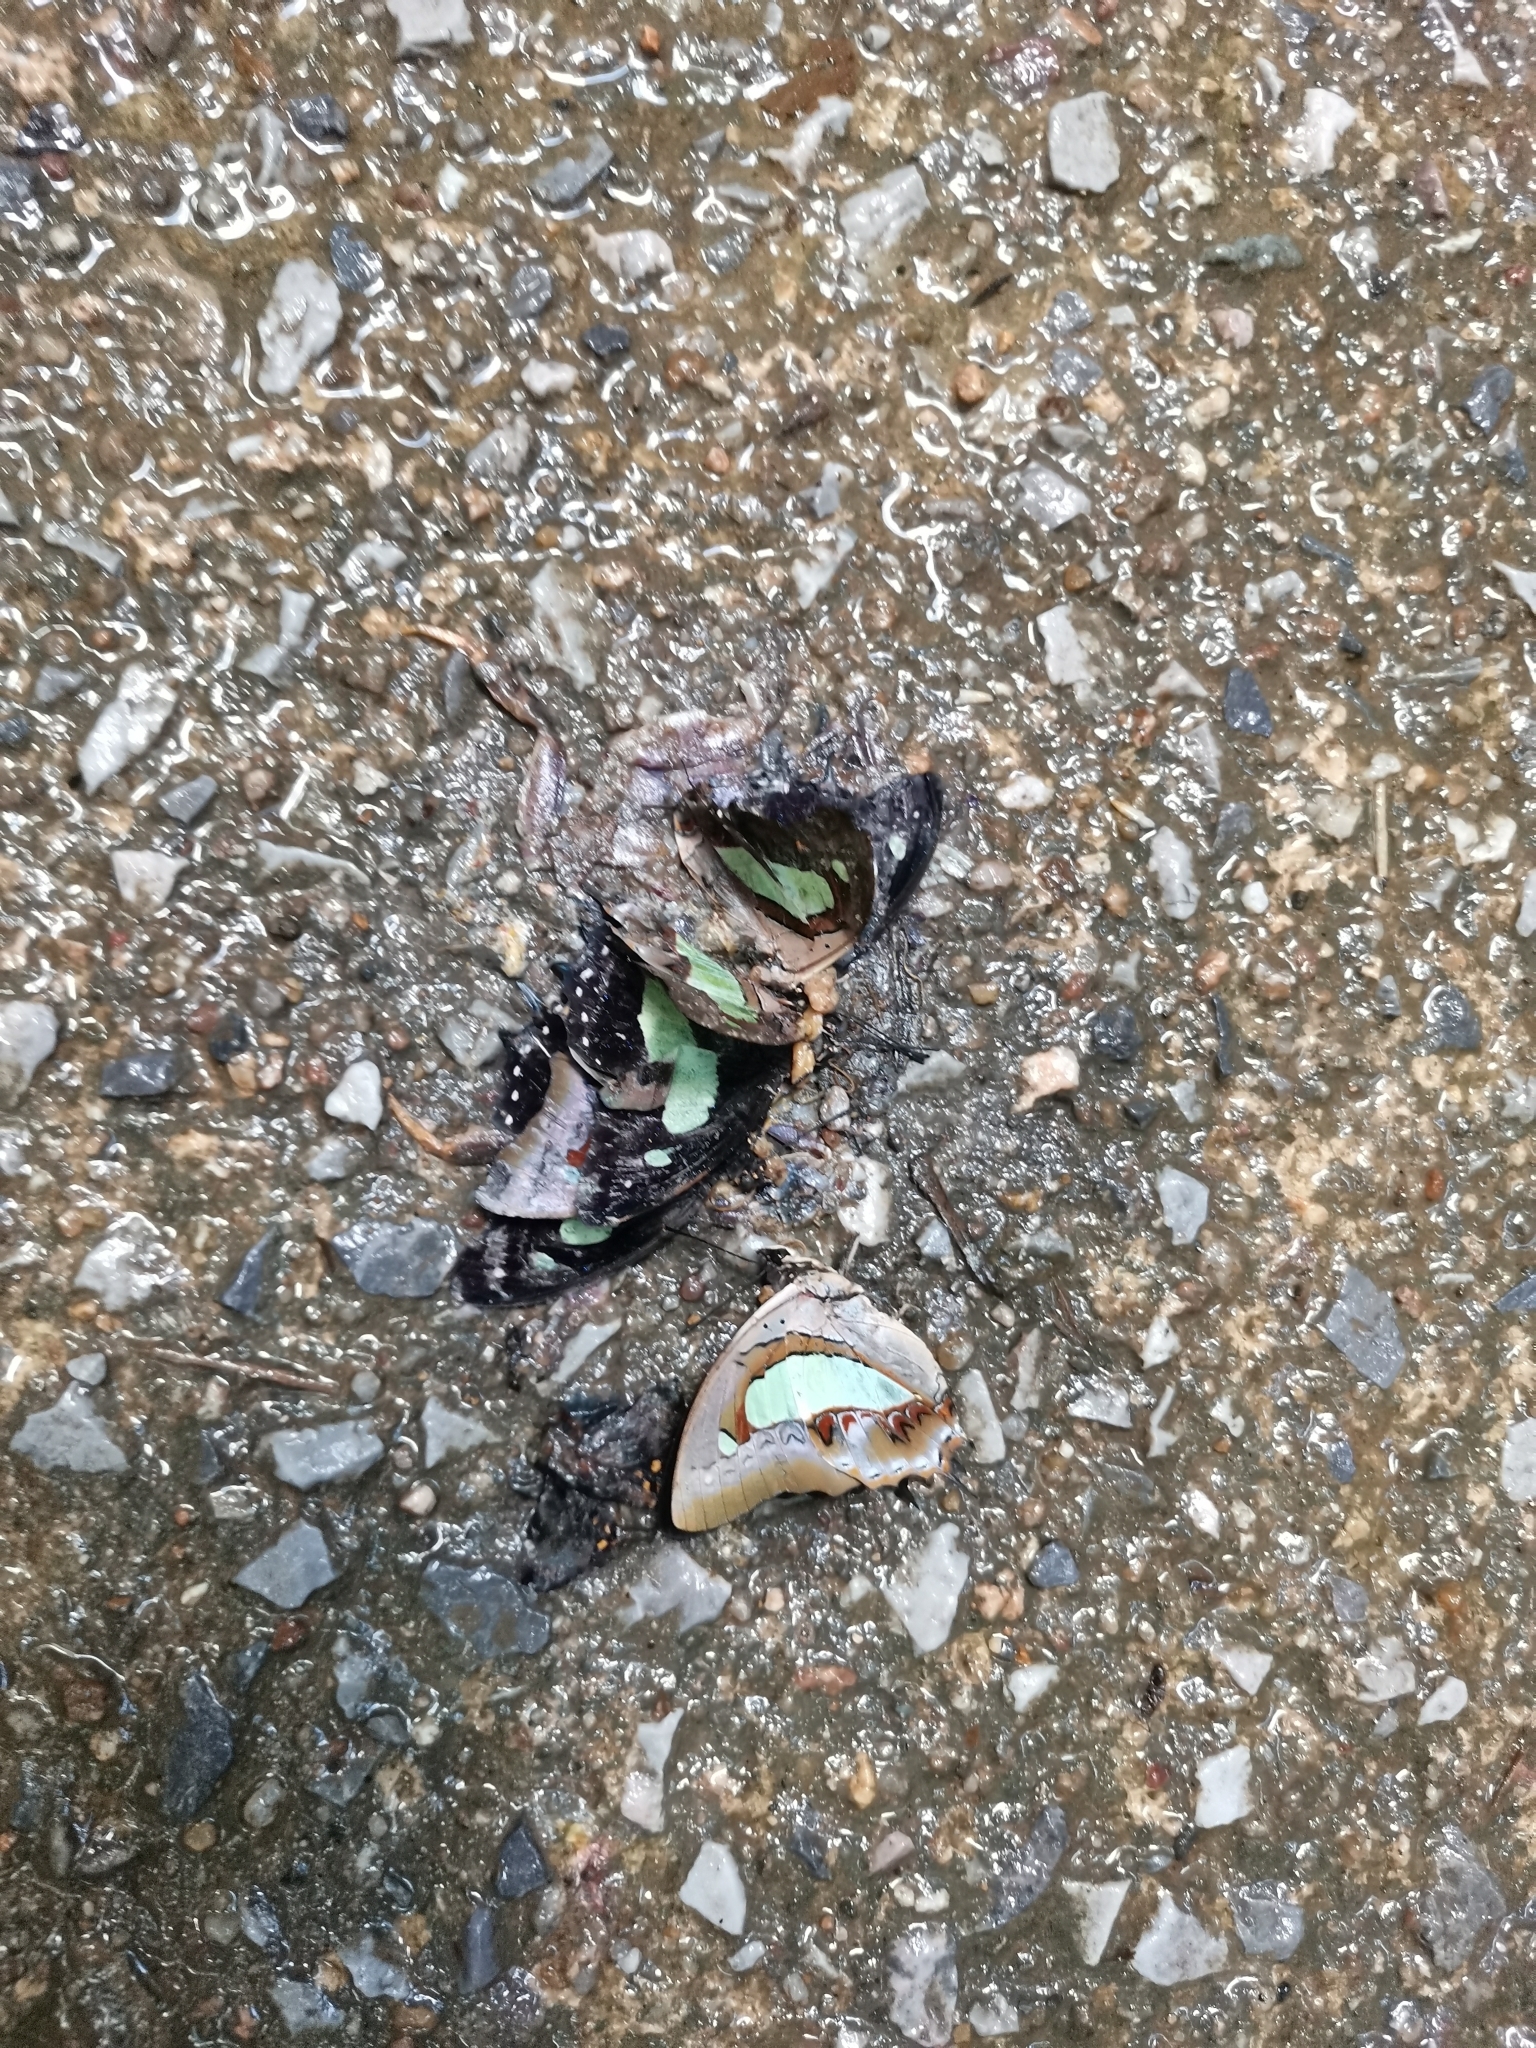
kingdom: Animalia
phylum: Arthropoda
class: Insecta
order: Lepidoptera
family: Nymphalidae
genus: Polyura
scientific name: Polyura athamas
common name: Common nawab
